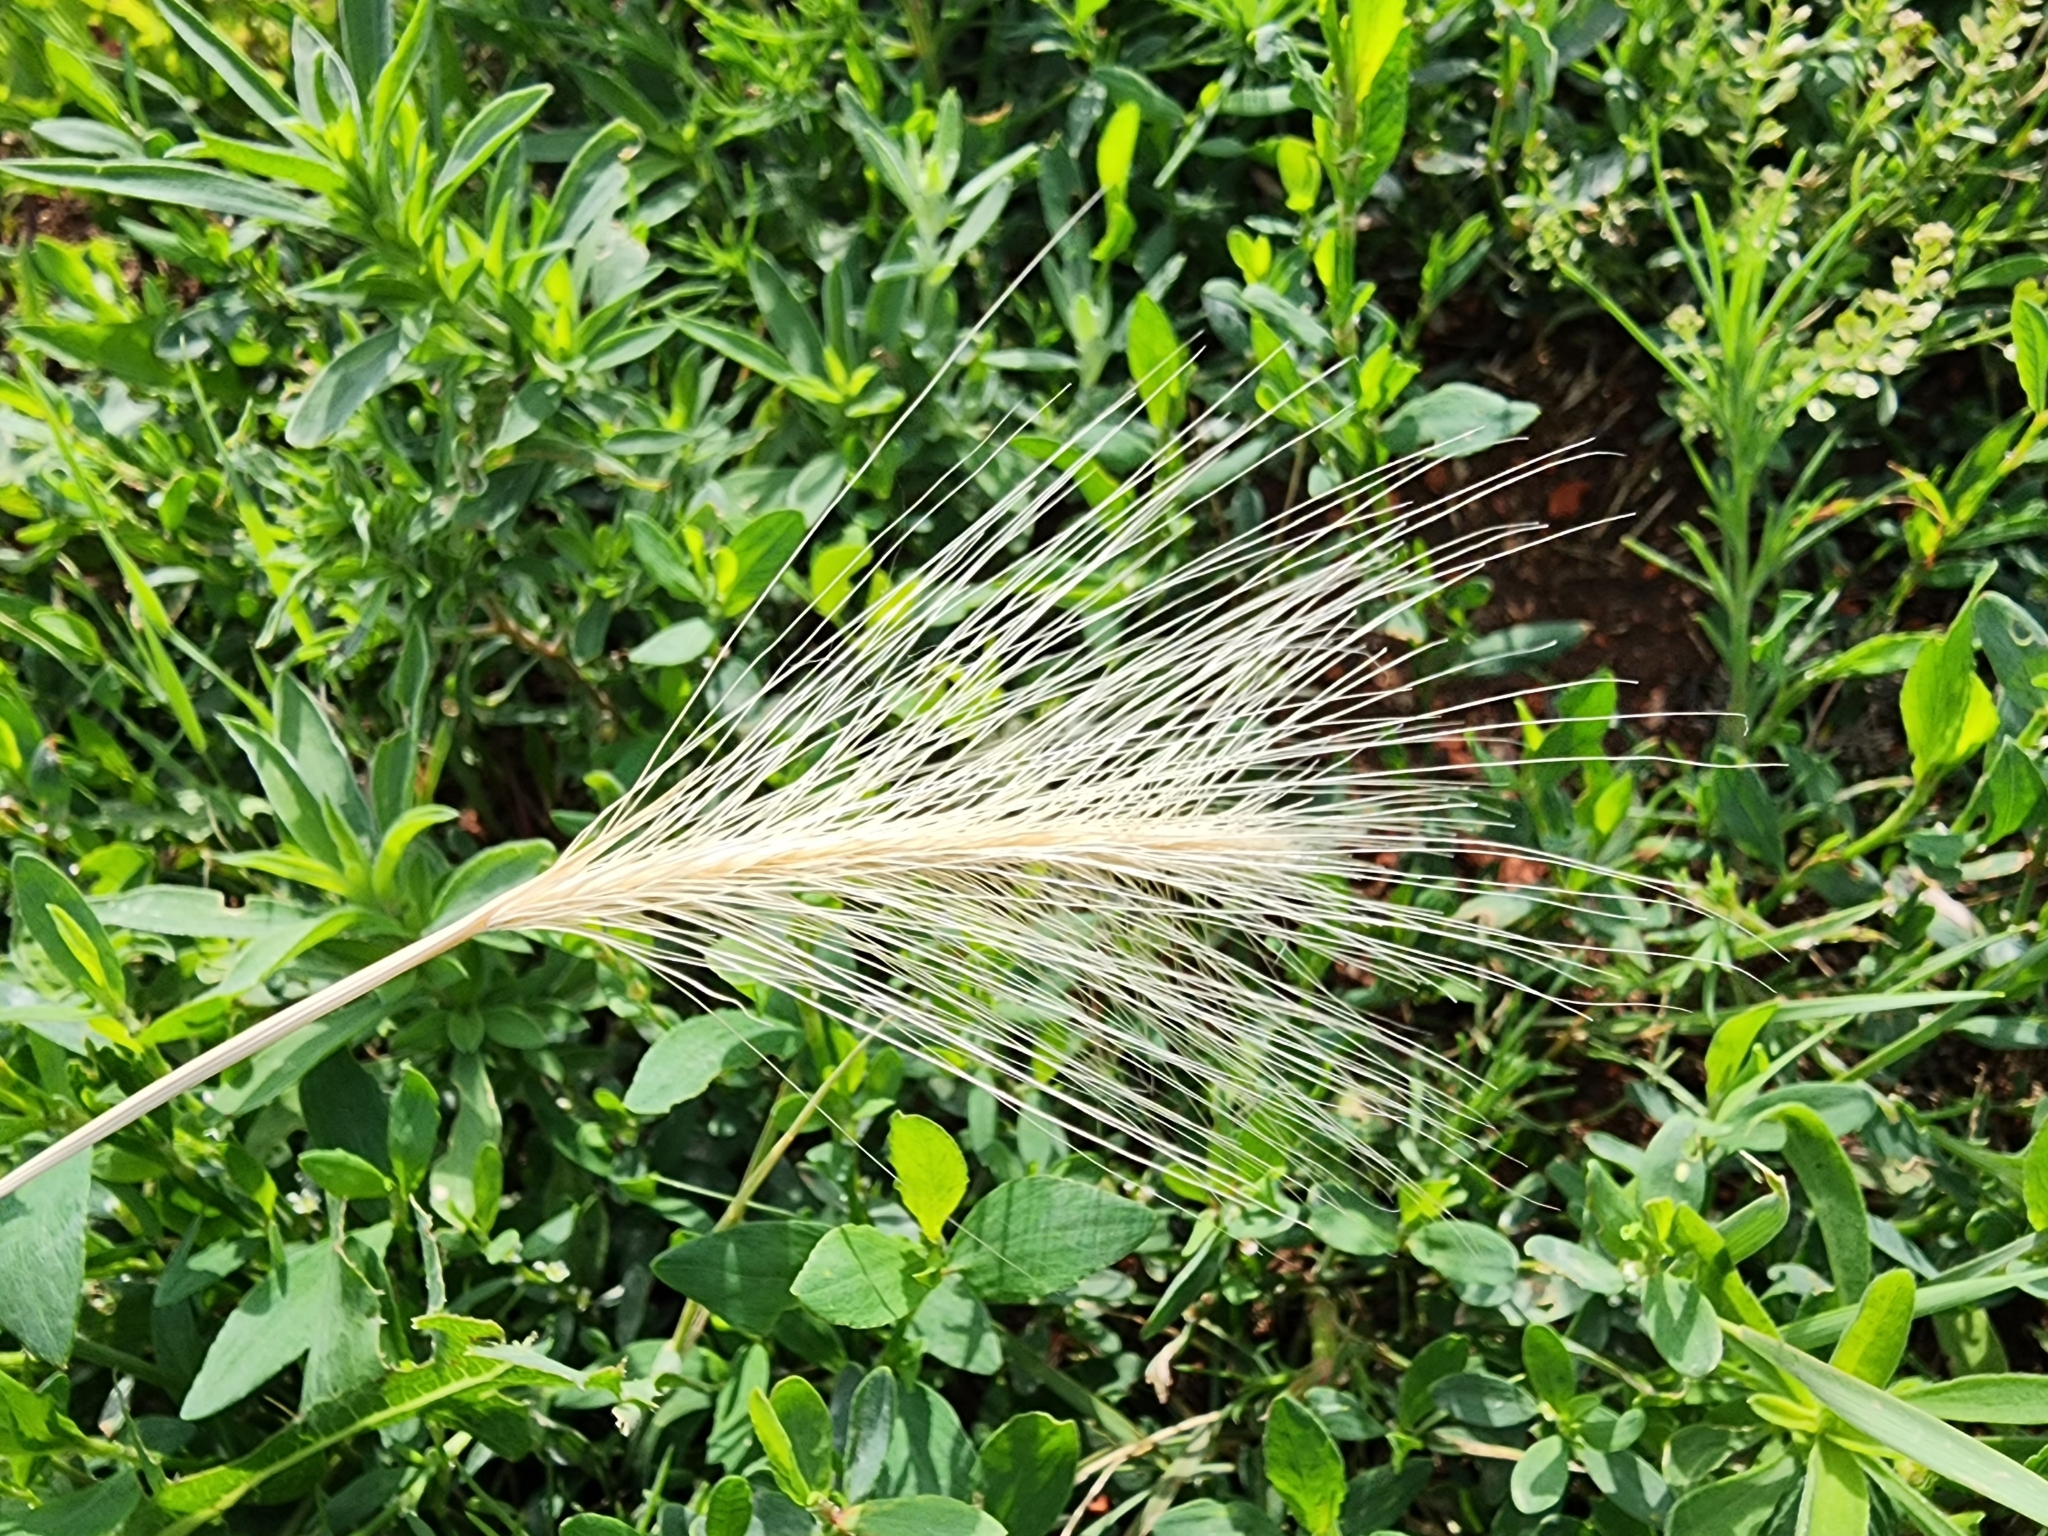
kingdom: Plantae
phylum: Tracheophyta
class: Liliopsida
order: Poales
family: Poaceae
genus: Hordeum
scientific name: Hordeum jubatum
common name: Foxtail barley
